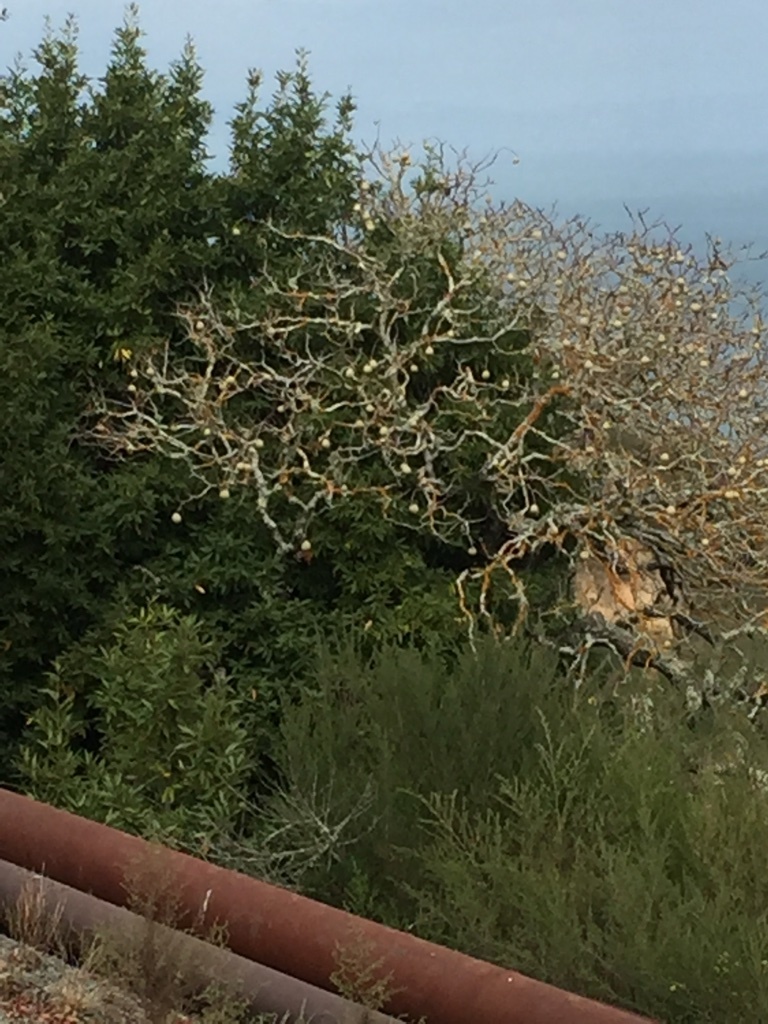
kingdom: Plantae
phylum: Tracheophyta
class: Magnoliopsida
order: Sapindales
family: Sapindaceae
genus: Aesculus
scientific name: Aesculus californica
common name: California buckeye
